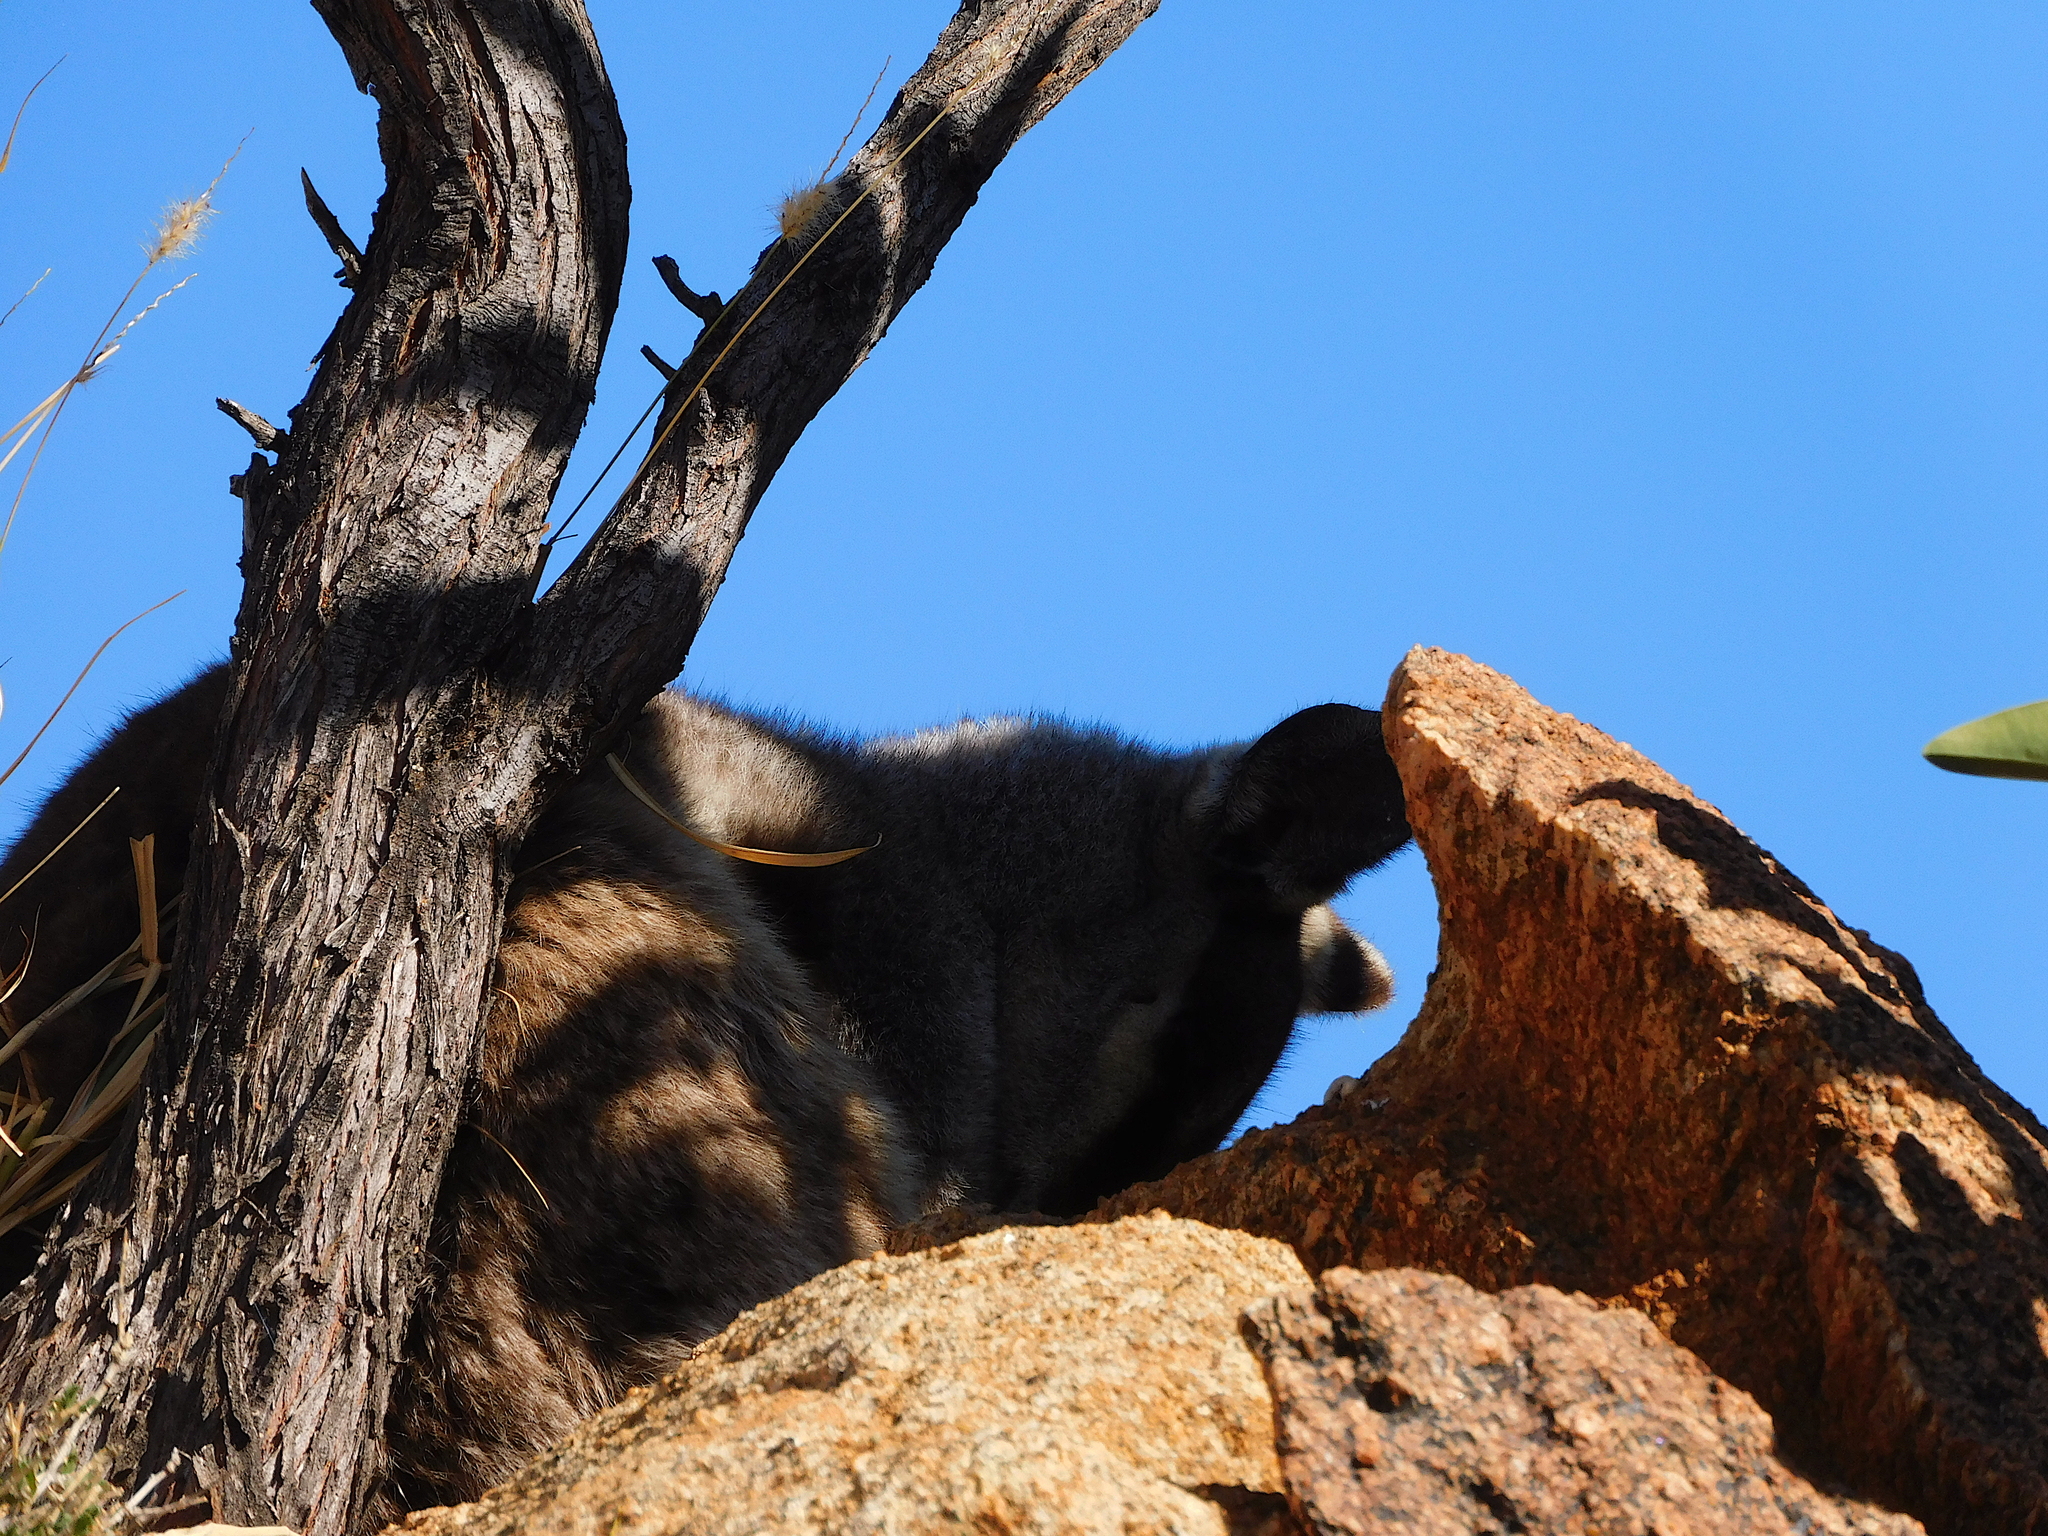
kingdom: Animalia
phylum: Chordata
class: Mammalia
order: Diprotodontia
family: Macropodidae
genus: Petrogale
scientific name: Petrogale lateralis
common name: Black-flanked rock-wallaby
